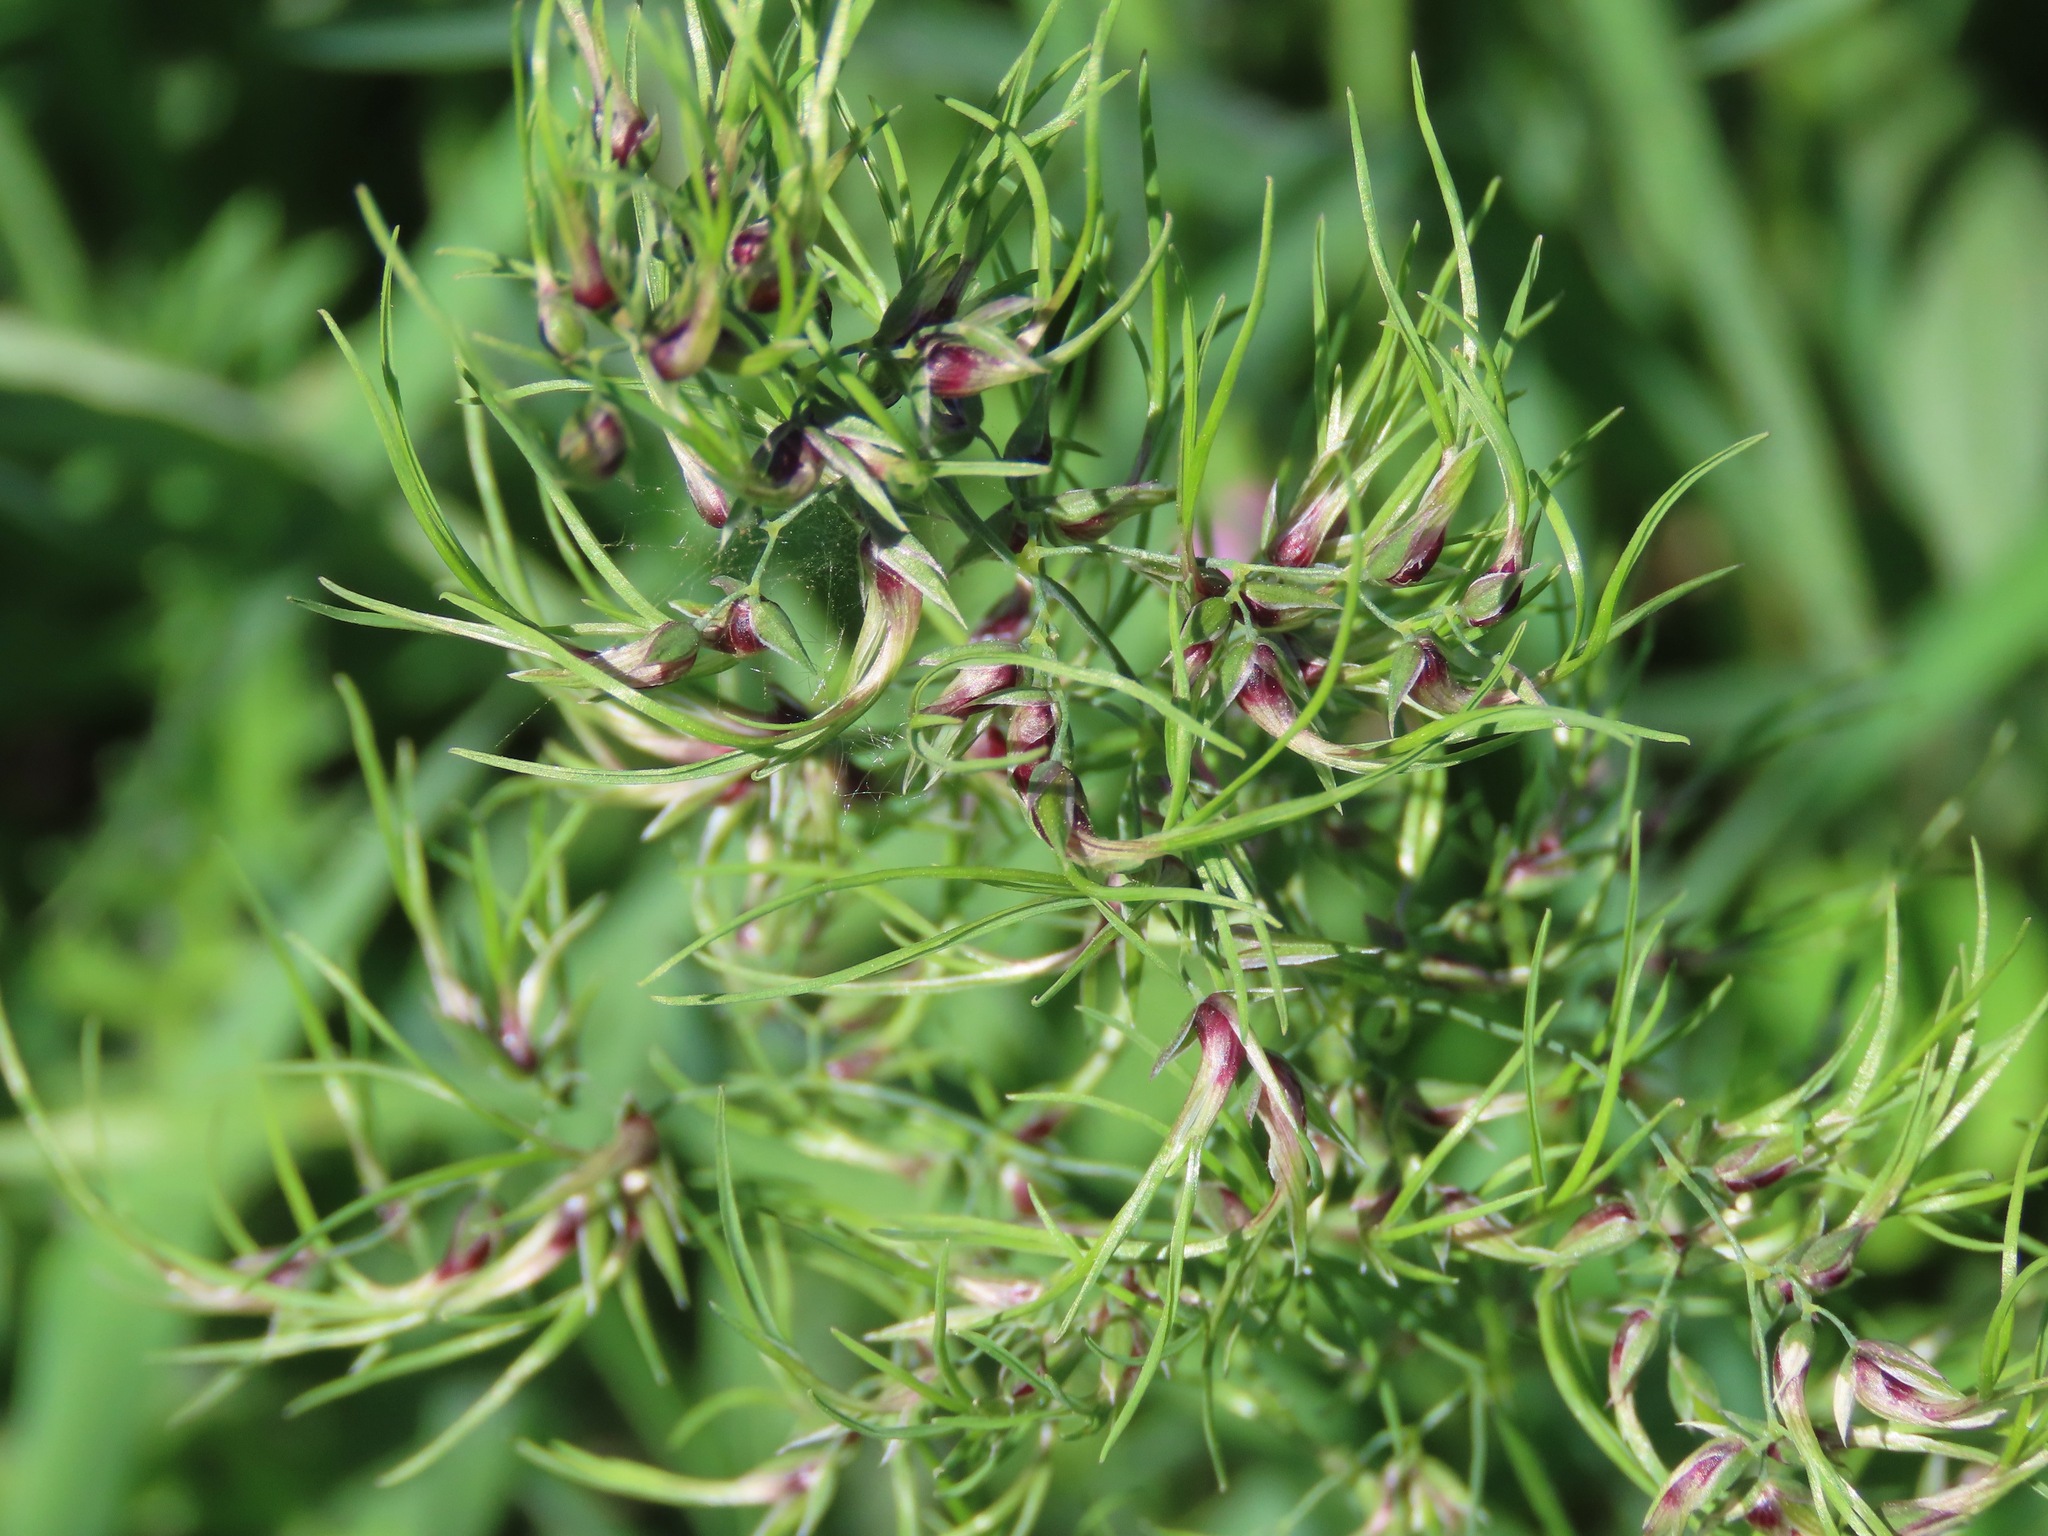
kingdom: Plantae
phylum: Tracheophyta
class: Liliopsida
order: Poales
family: Poaceae
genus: Poa
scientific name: Poa bulbosa
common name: Bulbous bluegrass
